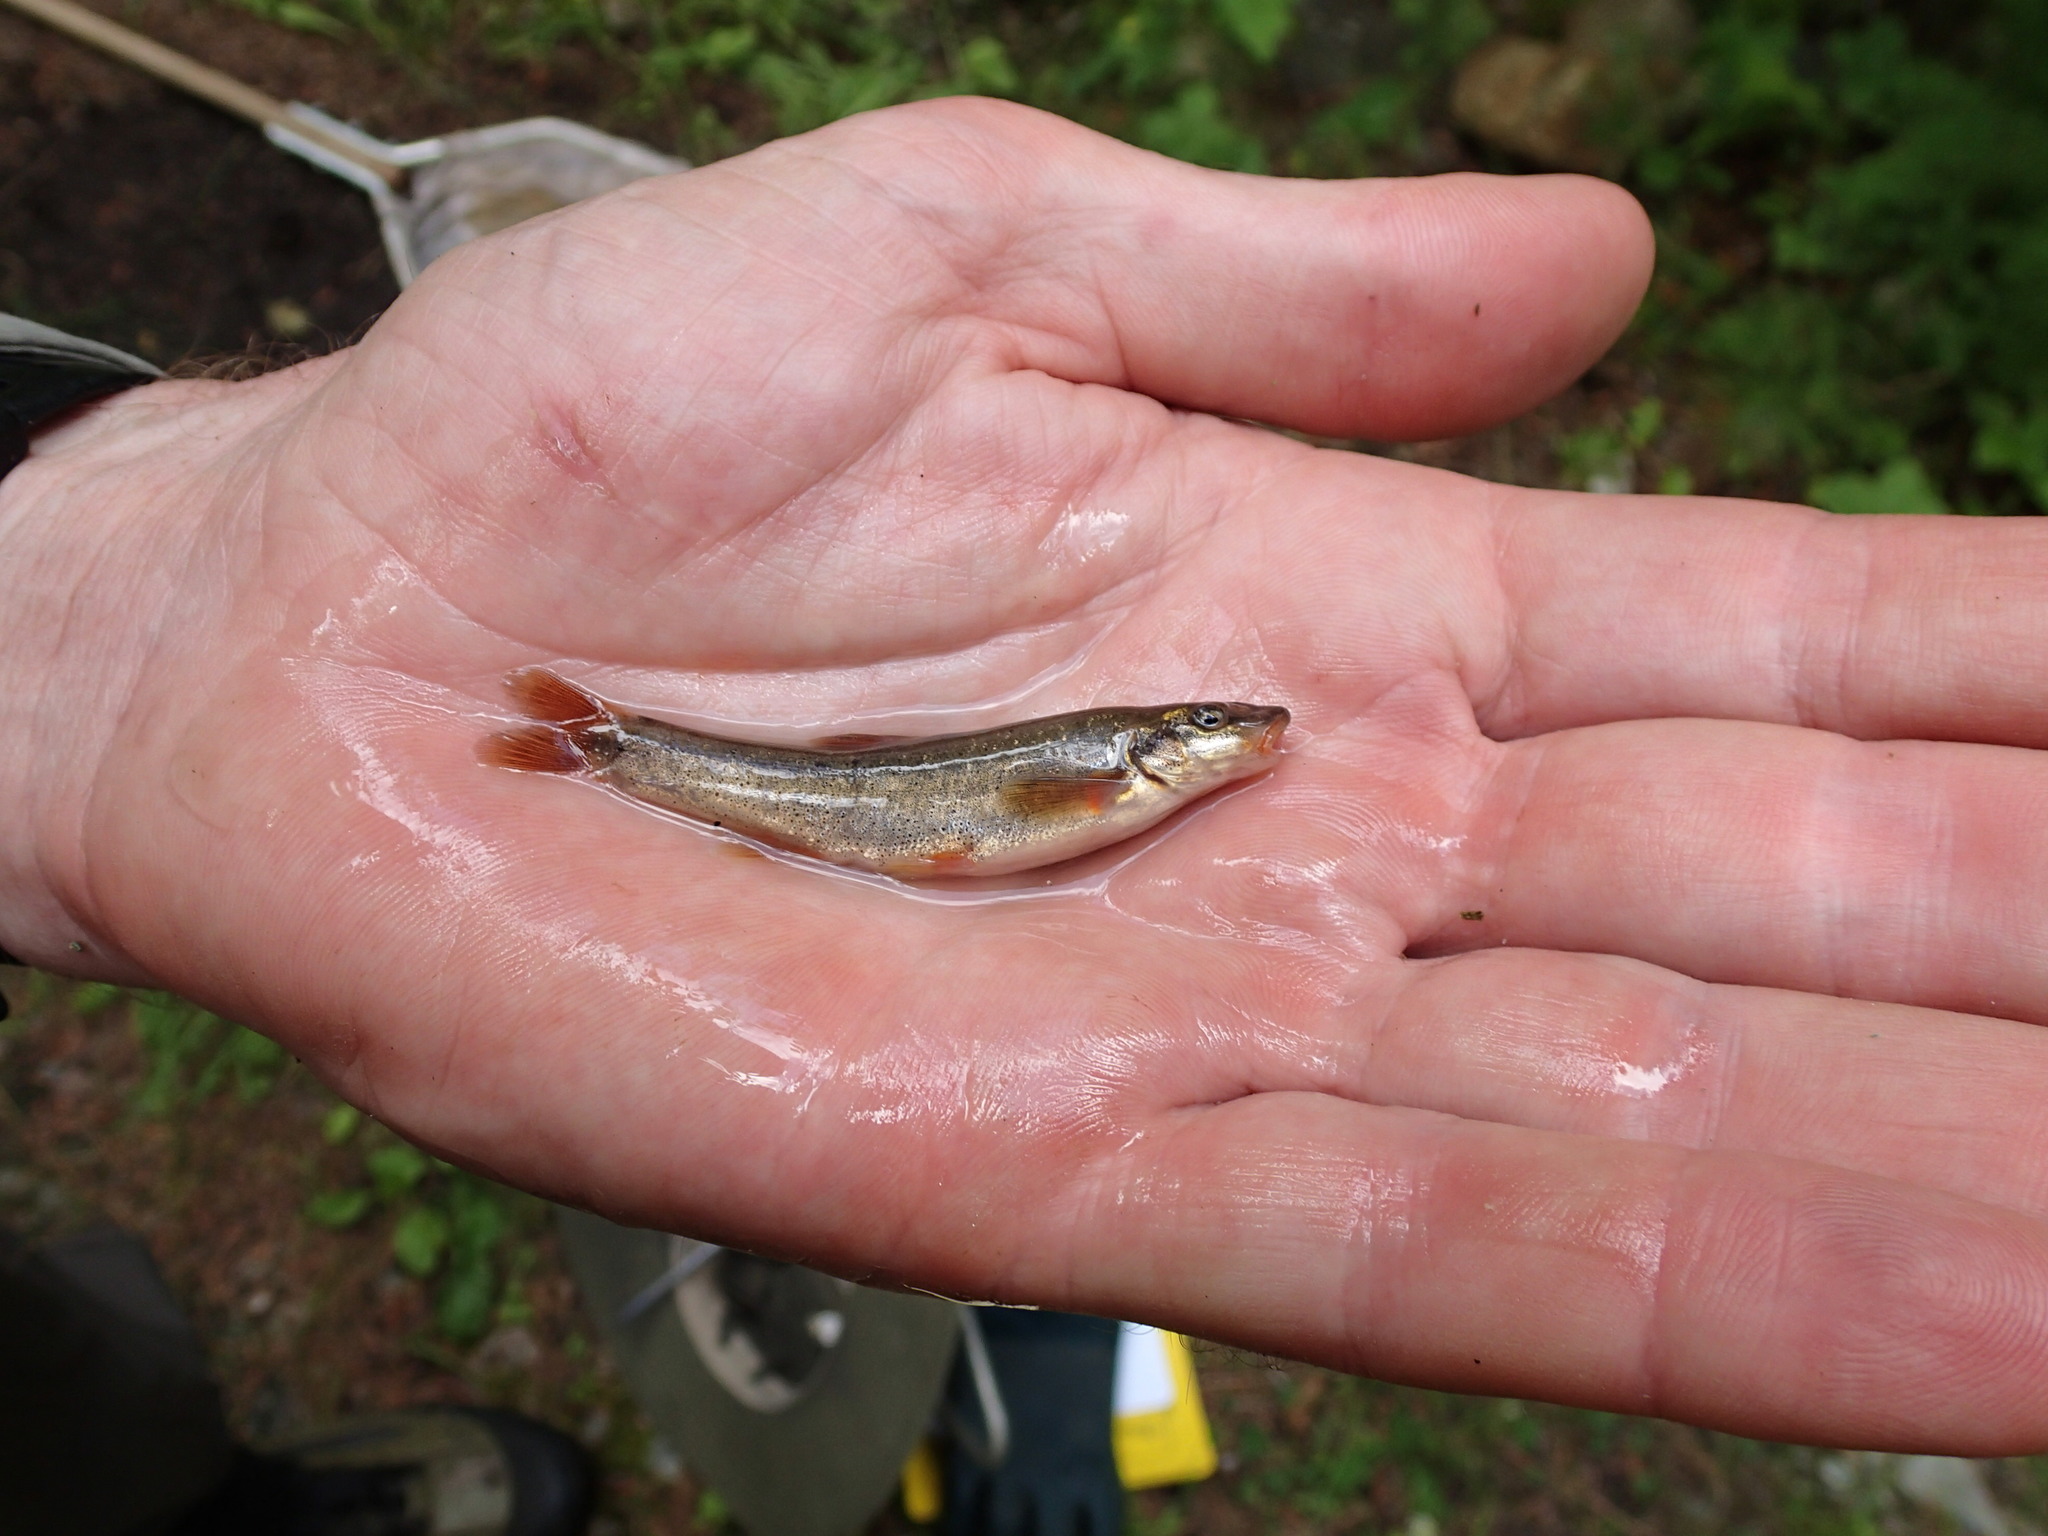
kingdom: Animalia
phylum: Chordata
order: Cypriniformes
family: Cyprinidae
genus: Rhinichthys
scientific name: Rhinichthys cataractae
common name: Longnose dace
